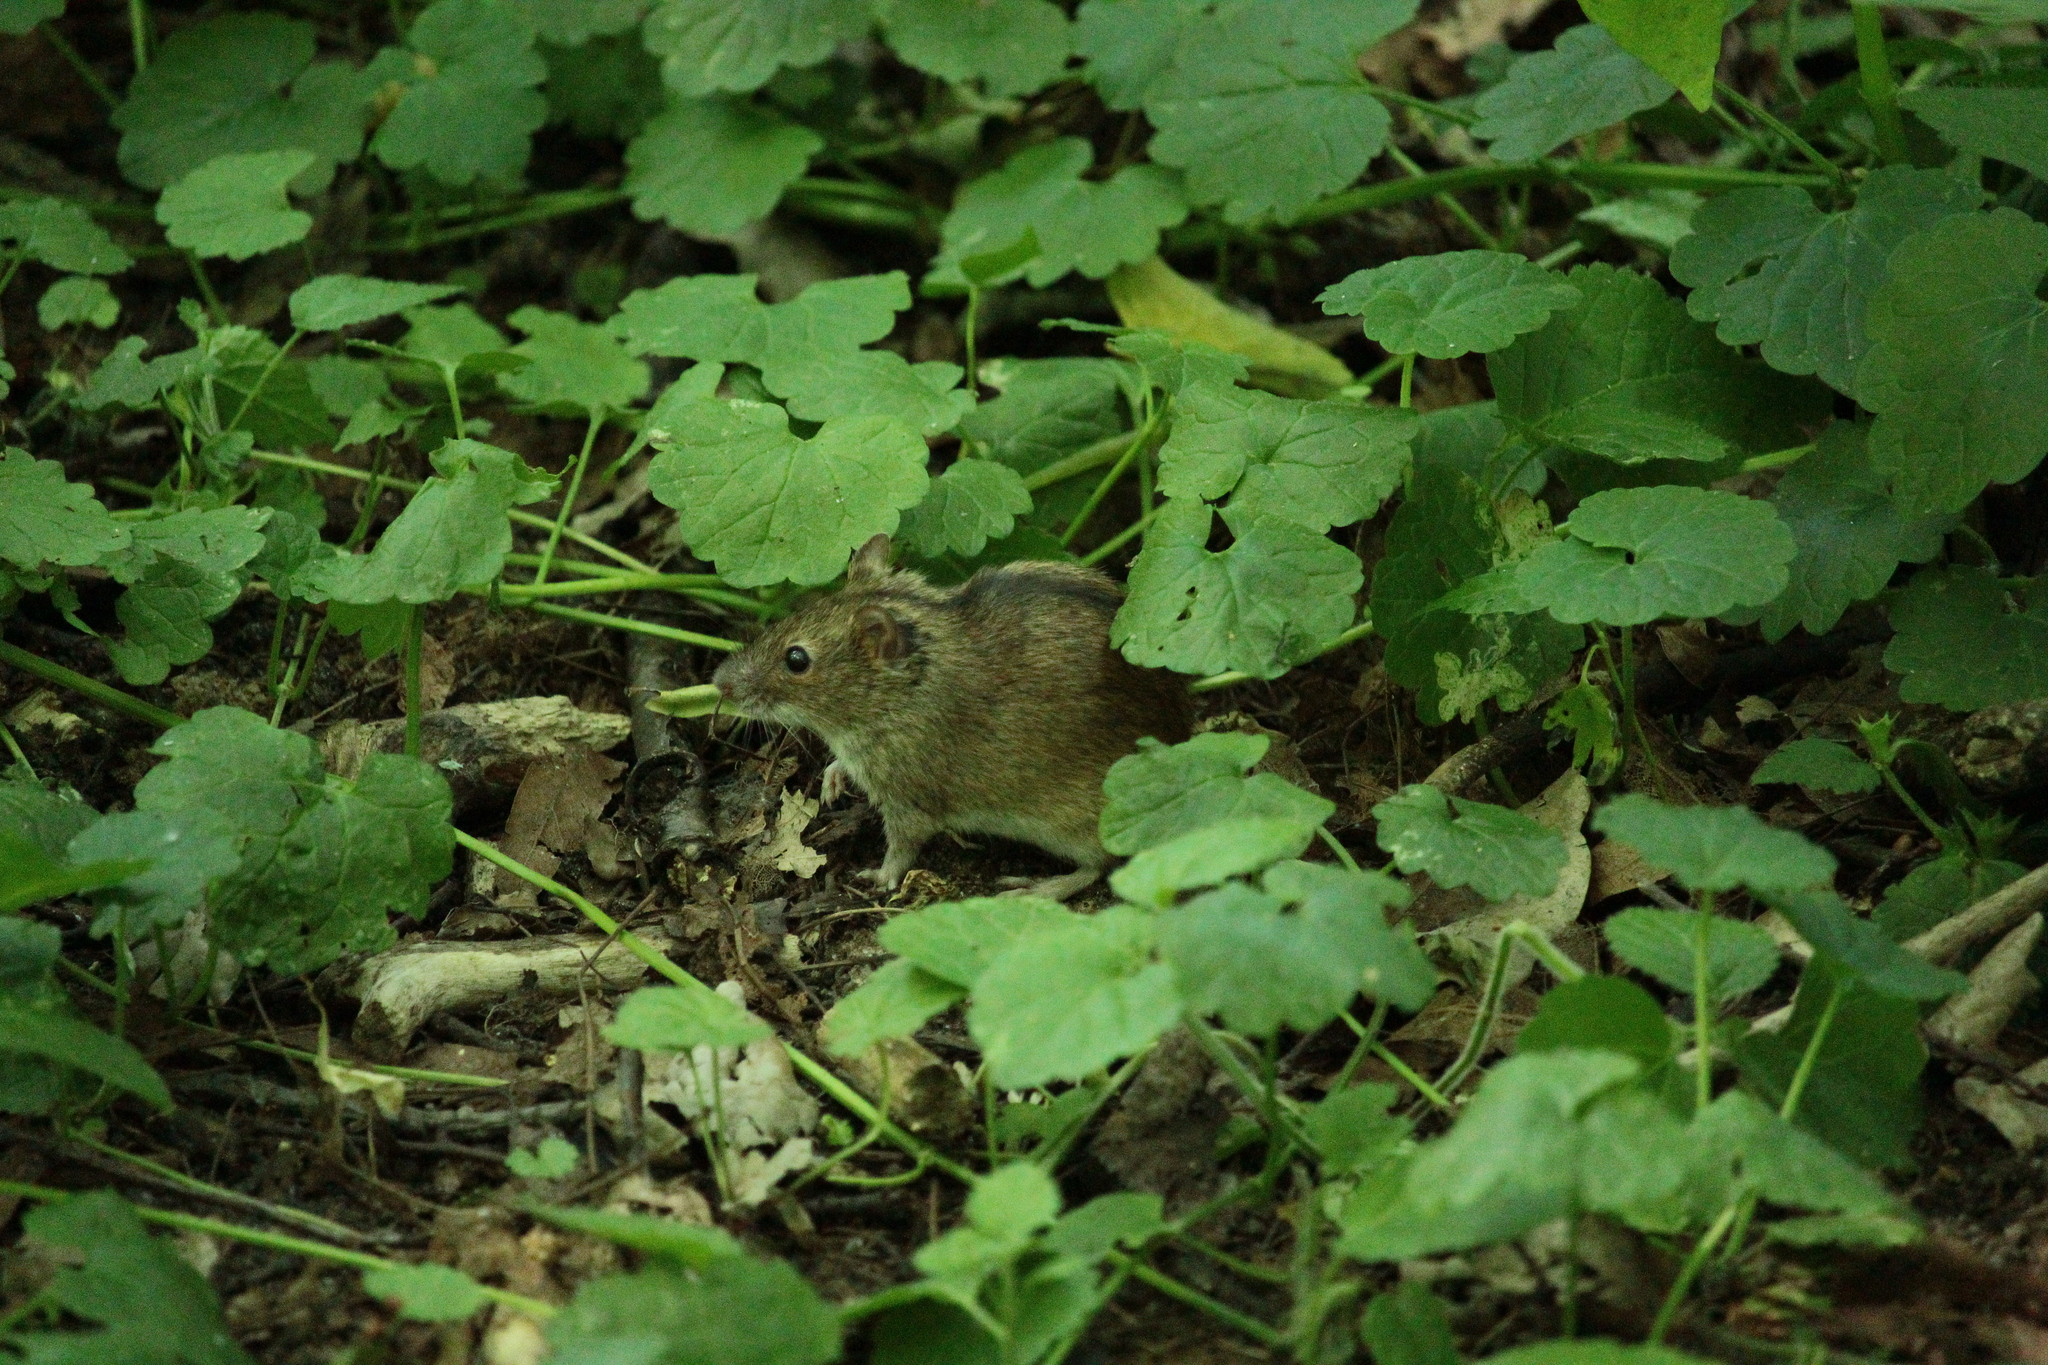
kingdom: Animalia
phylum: Chordata
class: Mammalia
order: Rodentia
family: Muridae
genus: Apodemus
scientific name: Apodemus agrarius
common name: Striped field mouse
